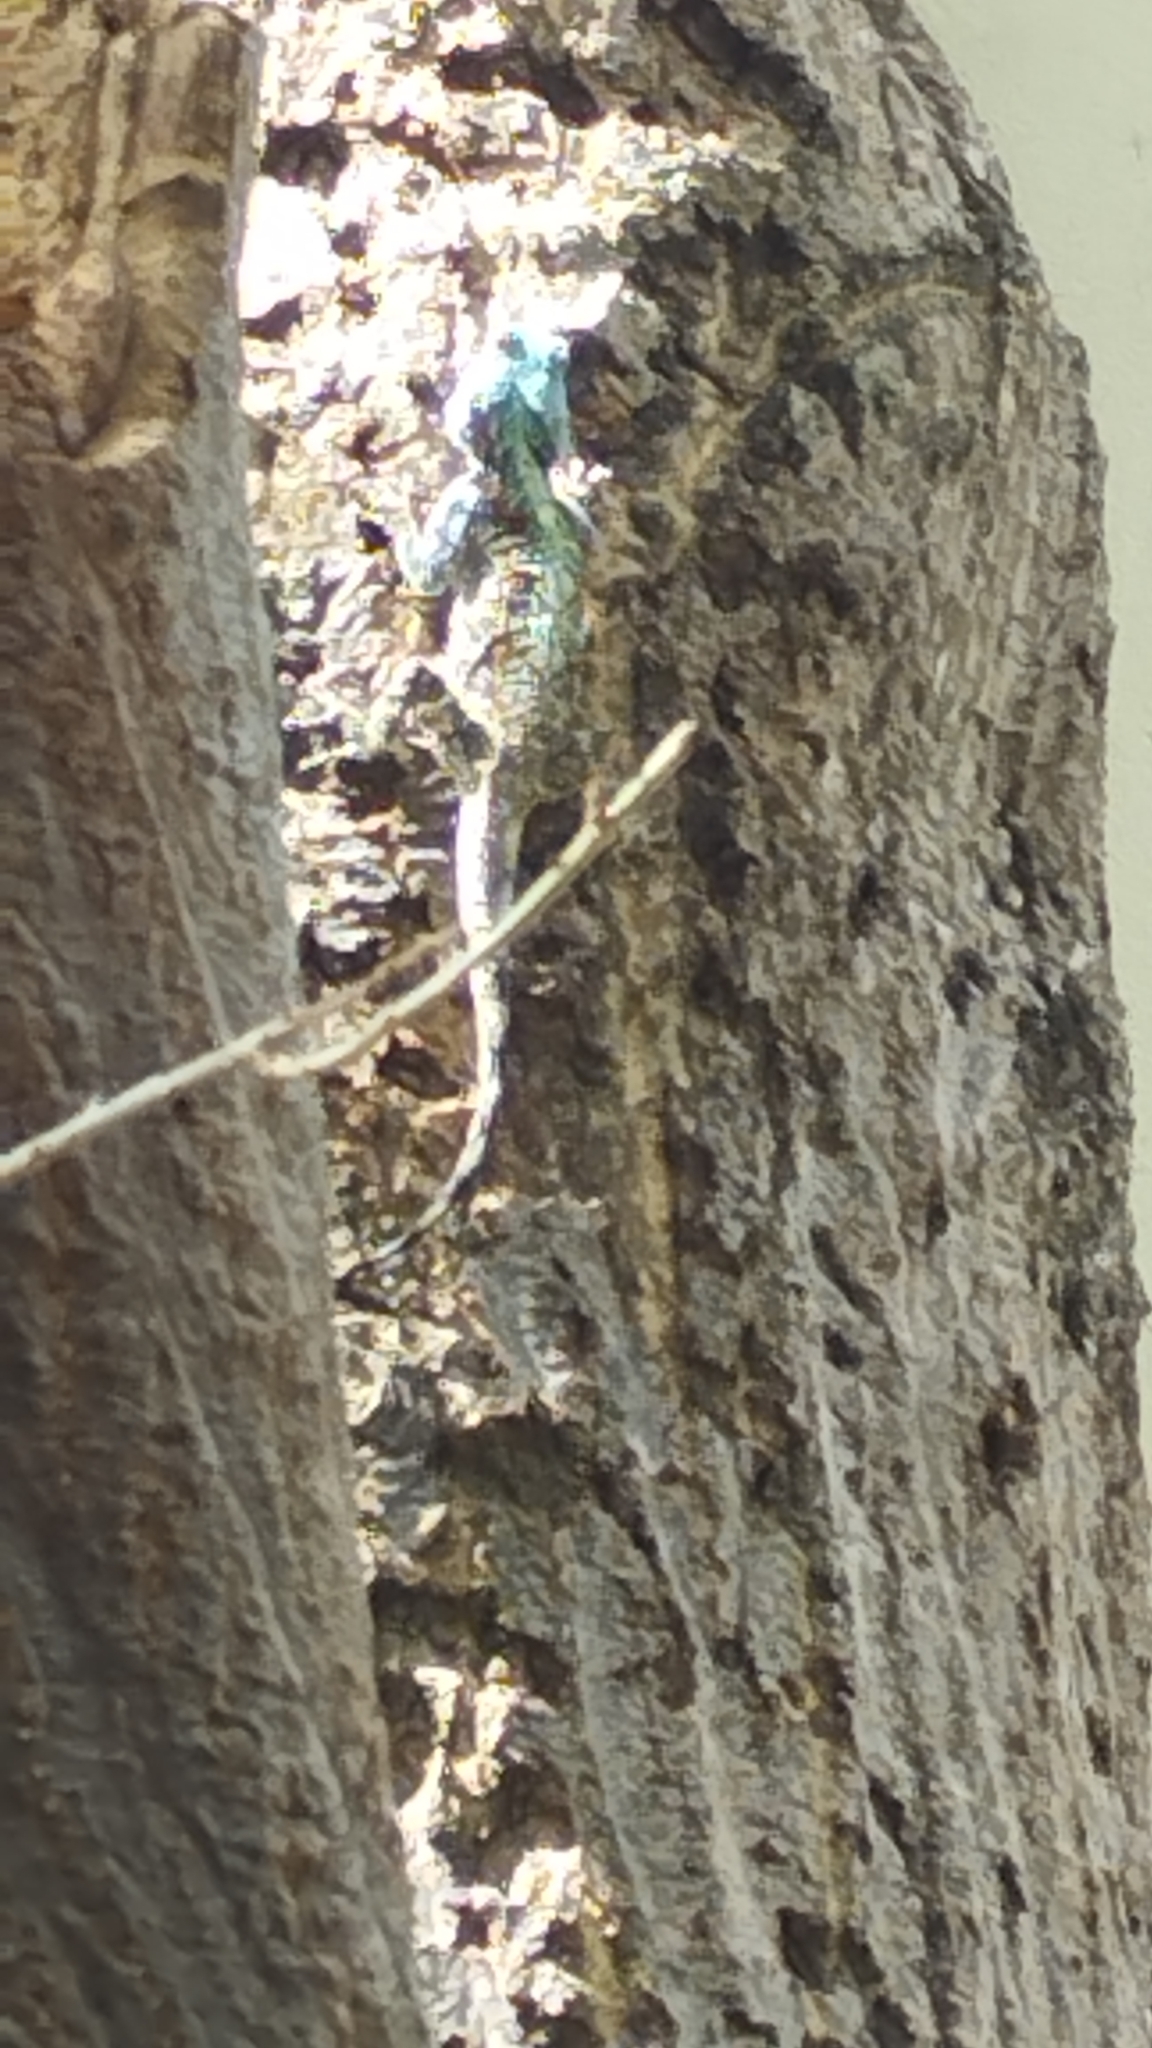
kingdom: Animalia
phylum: Chordata
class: Squamata
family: Agamidae
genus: Acanthocercus
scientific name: Acanthocercus atricollis
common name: Southern tree agama
